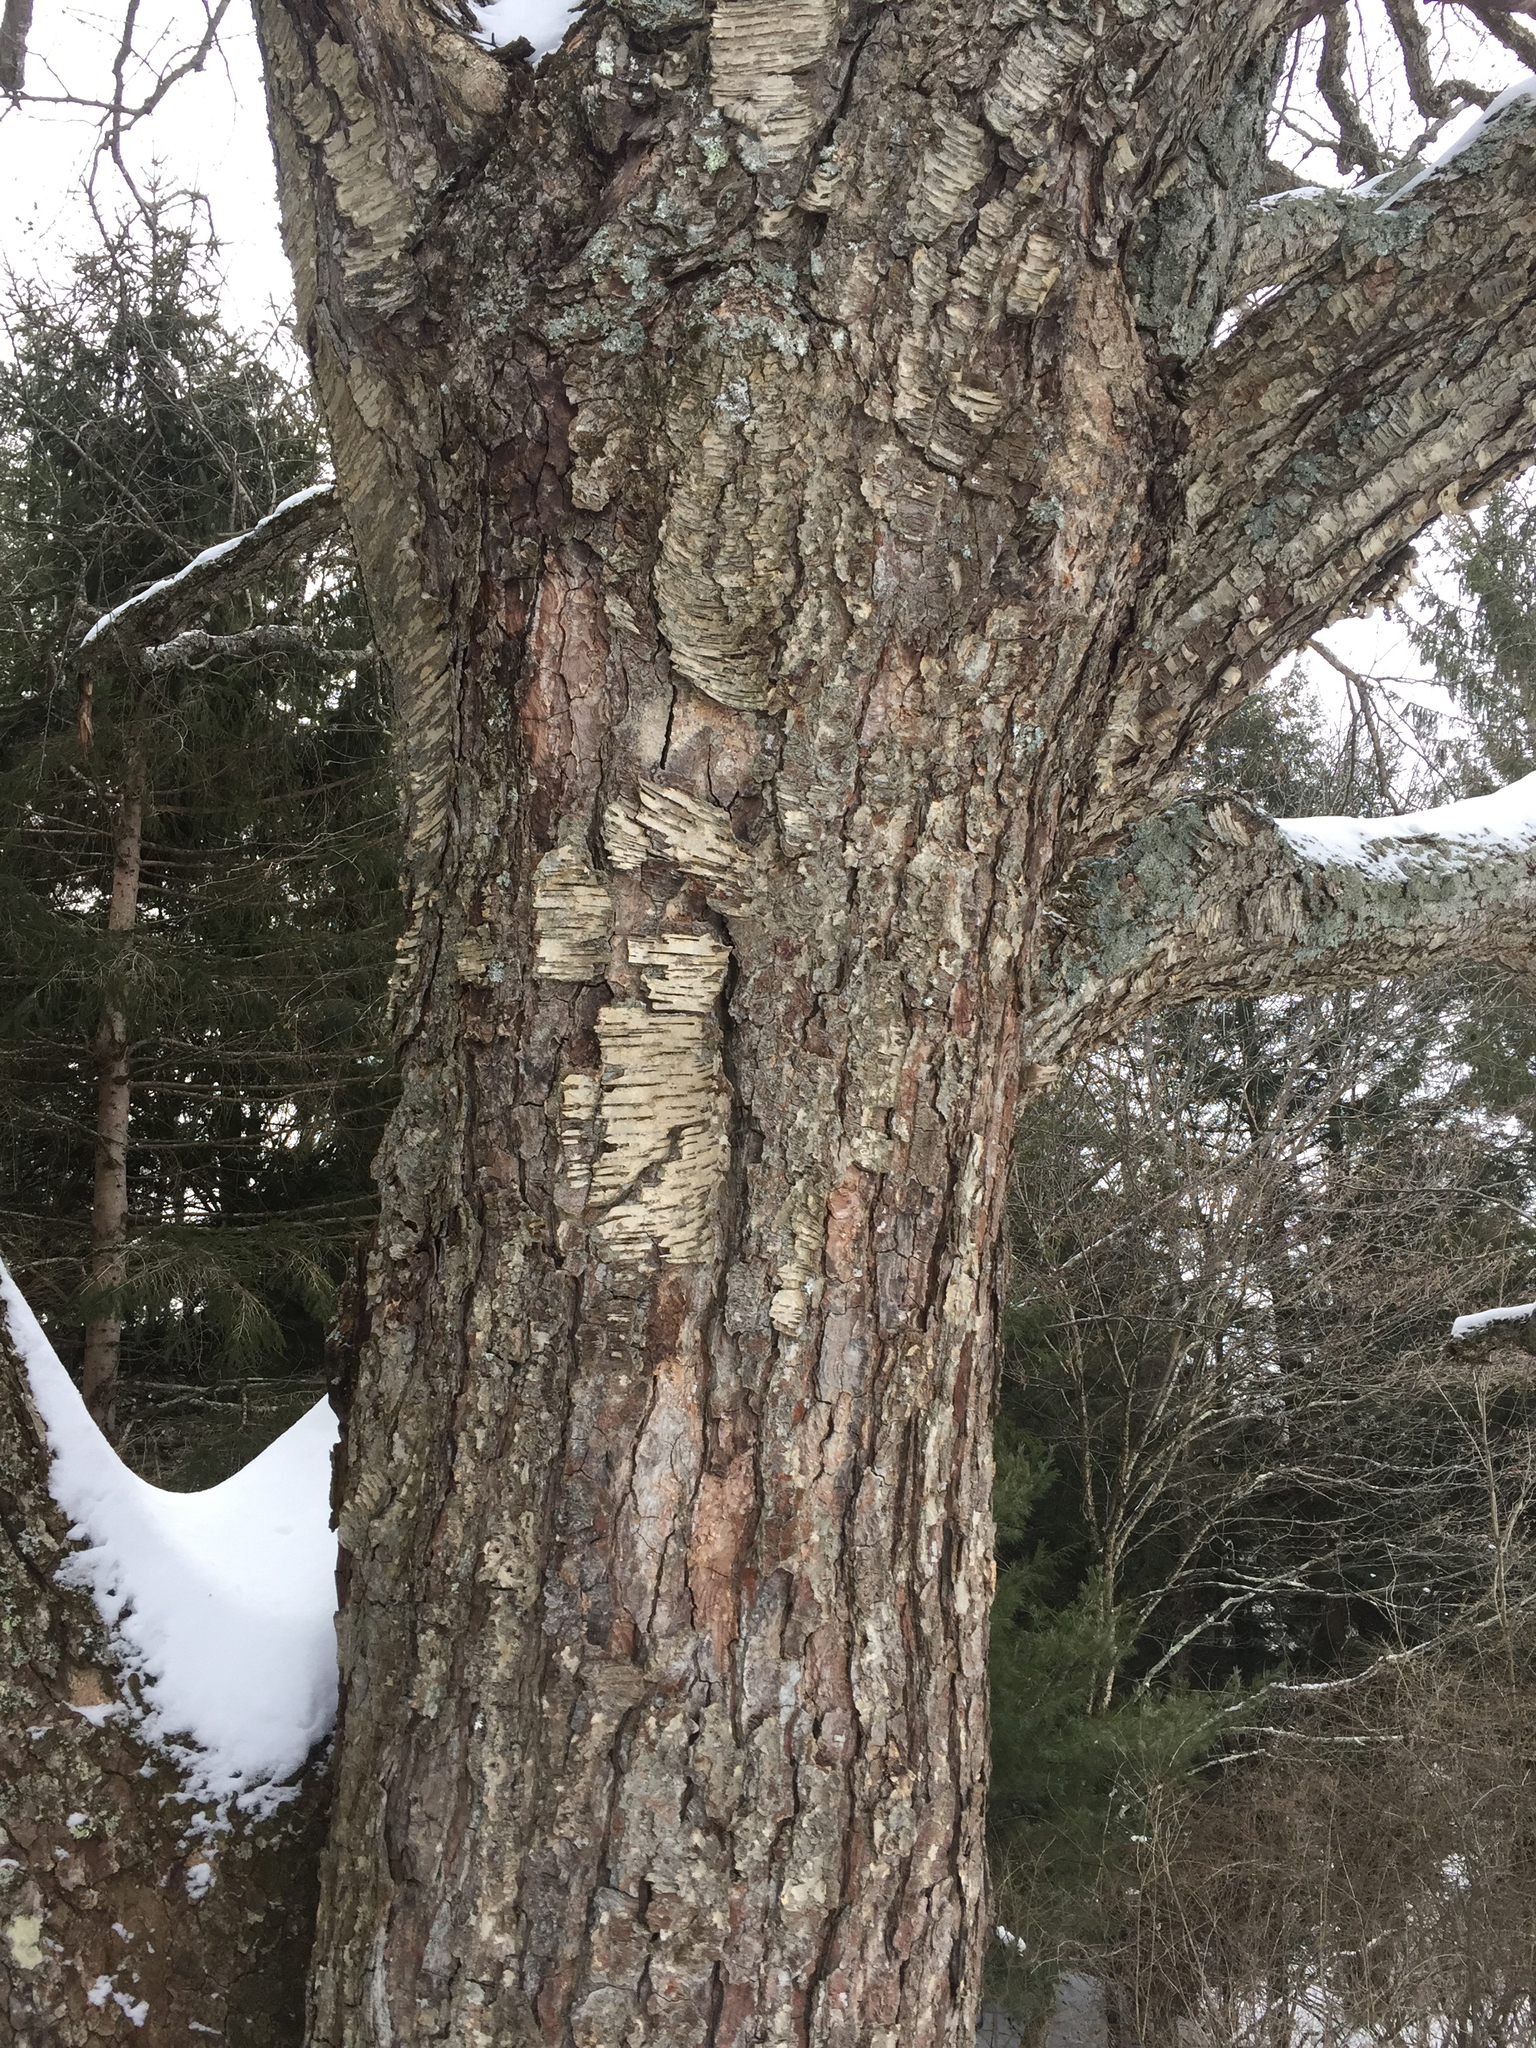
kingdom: Plantae
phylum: Tracheophyta
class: Magnoliopsida
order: Fagales
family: Betulaceae
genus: Betula
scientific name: Betula alleghaniensis
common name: Yellow birch
